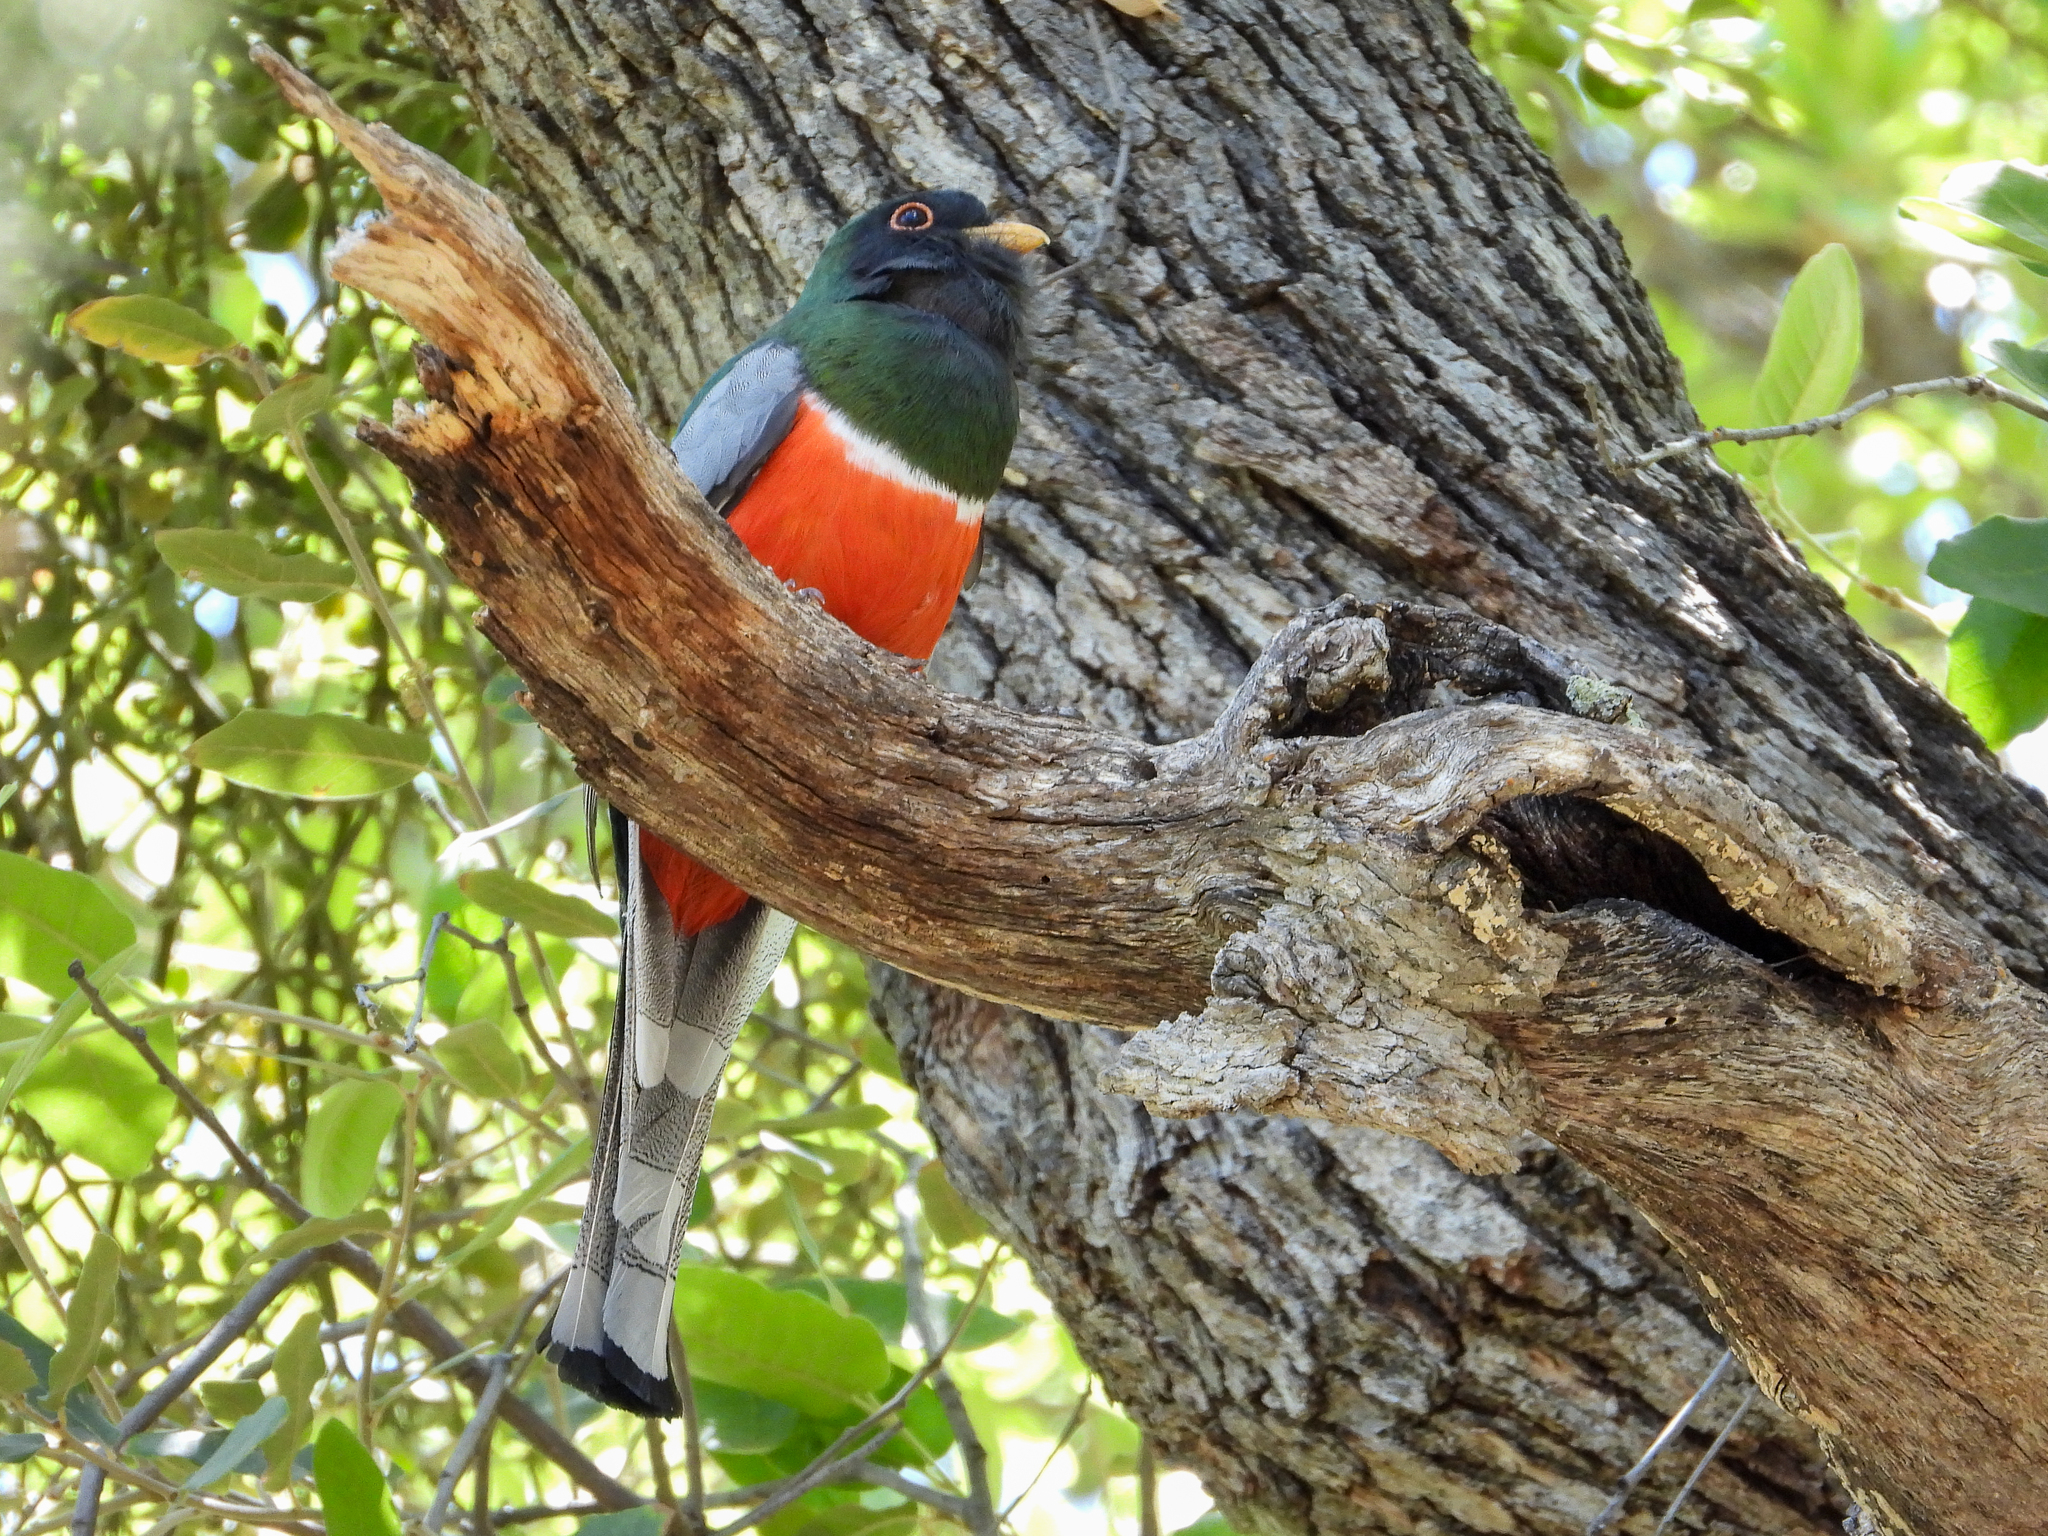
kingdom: Animalia
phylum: Chordata
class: Aves
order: Trogoniformes
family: Trogonidae
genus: Trogon
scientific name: Trogon elegans
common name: Elegant trogon
